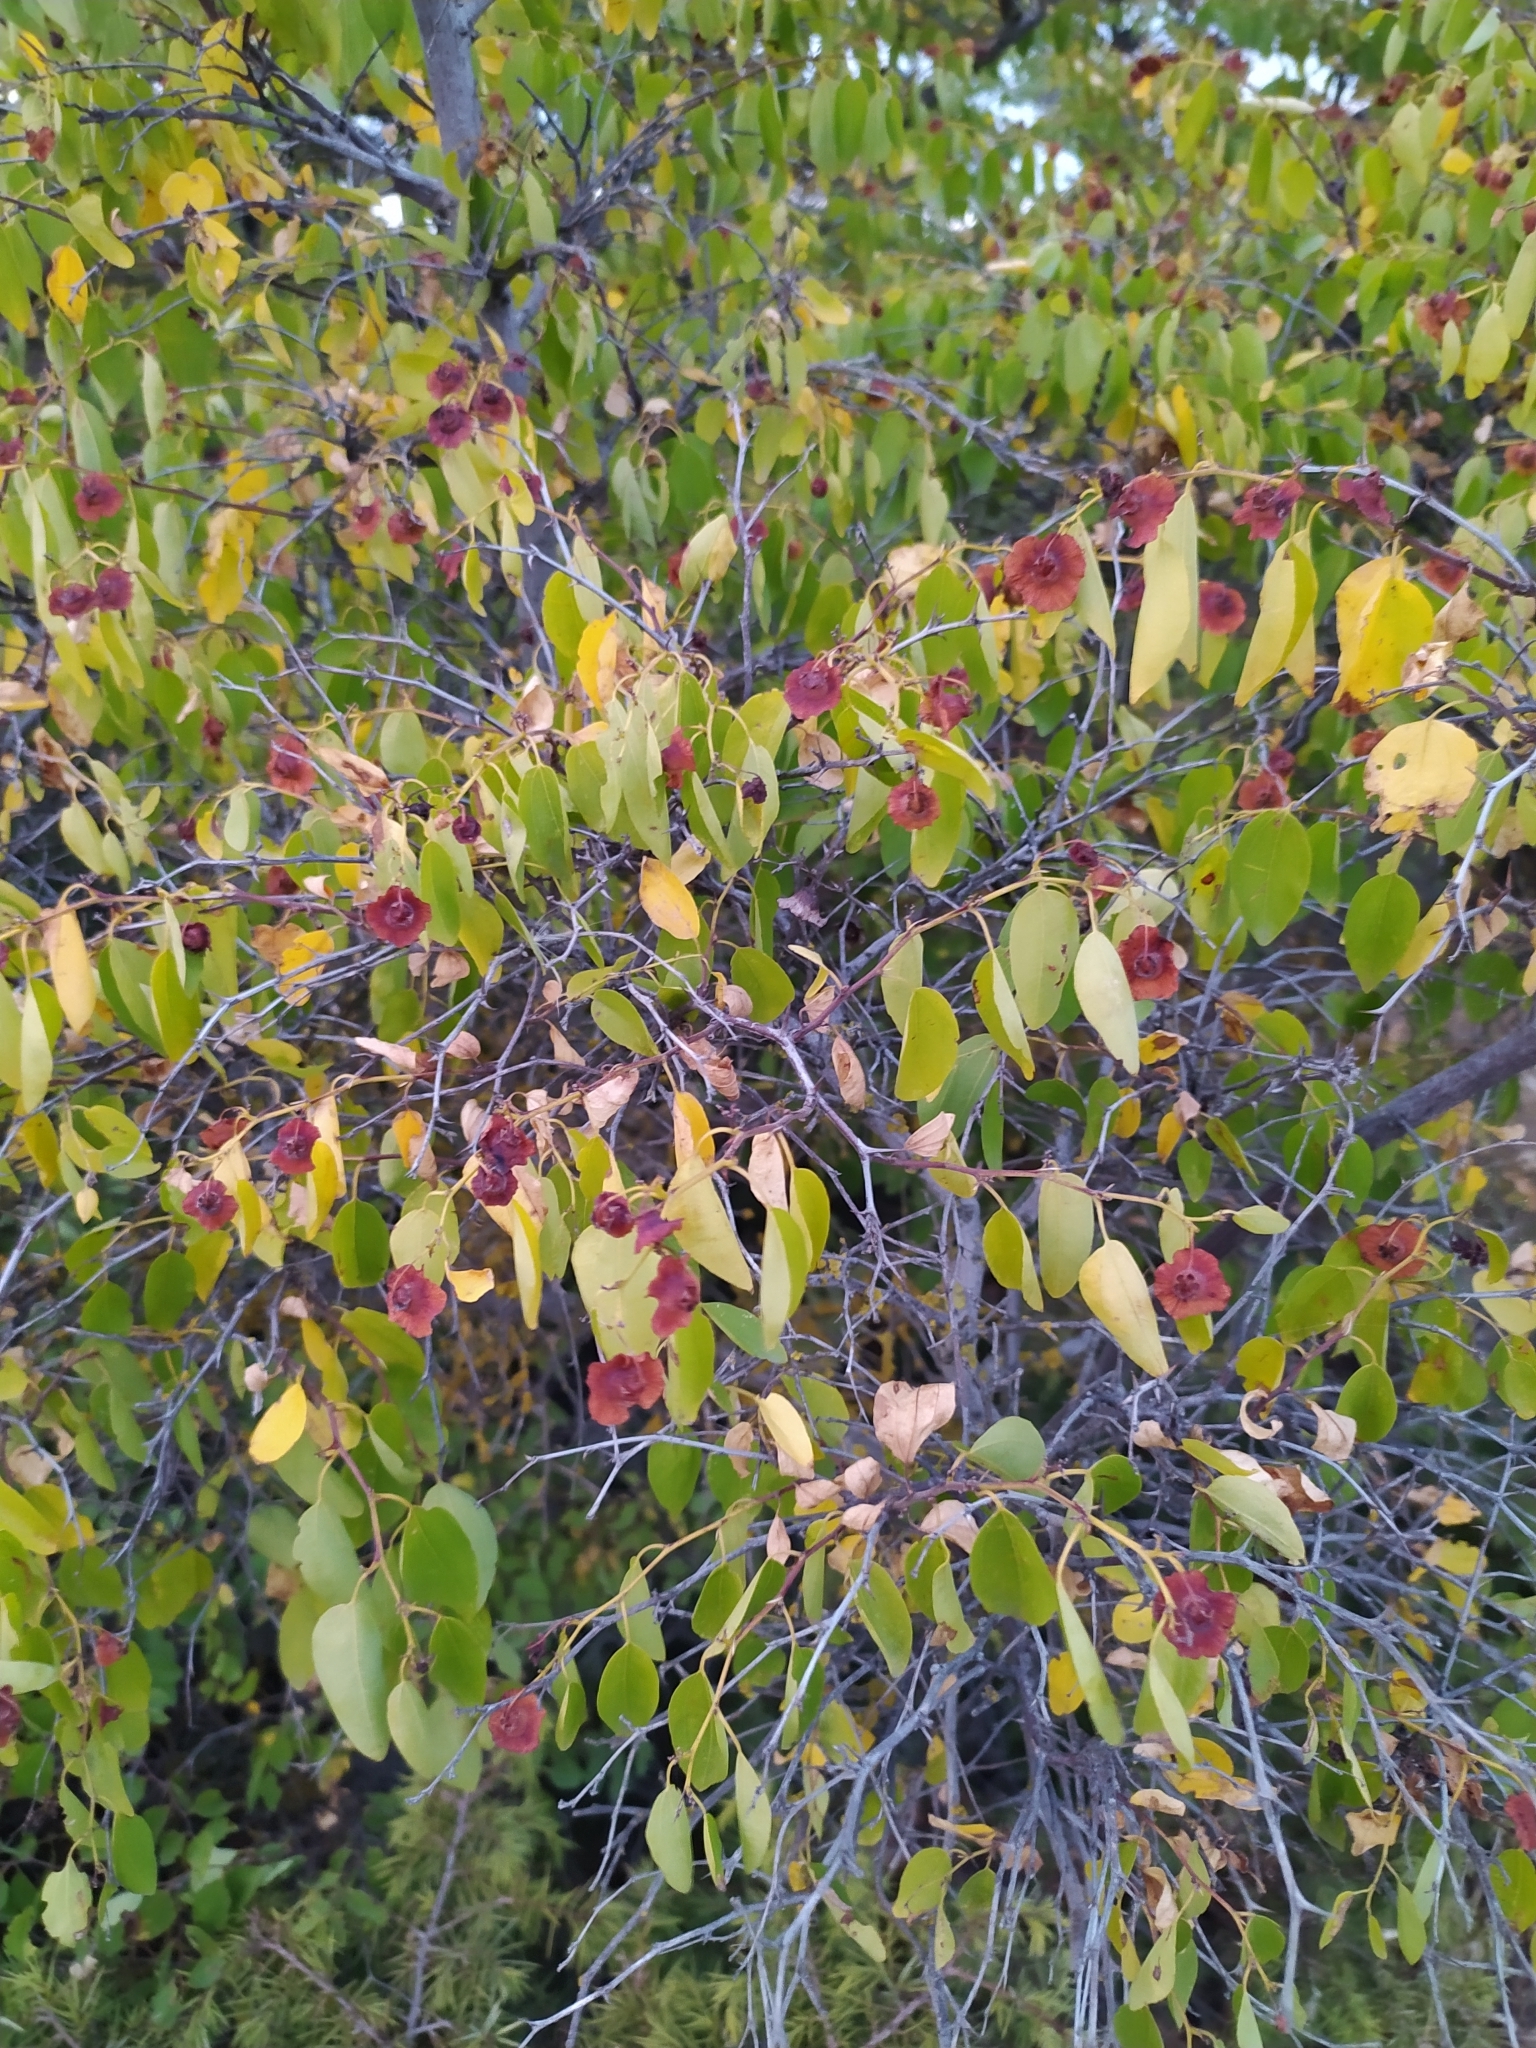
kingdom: Plantae
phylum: Tracheophyta
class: Magnoliopsida
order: Rosales
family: Rhamnaceae
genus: Paliurus
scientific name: Paliurus spina-christi
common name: Jeruselem thorn
